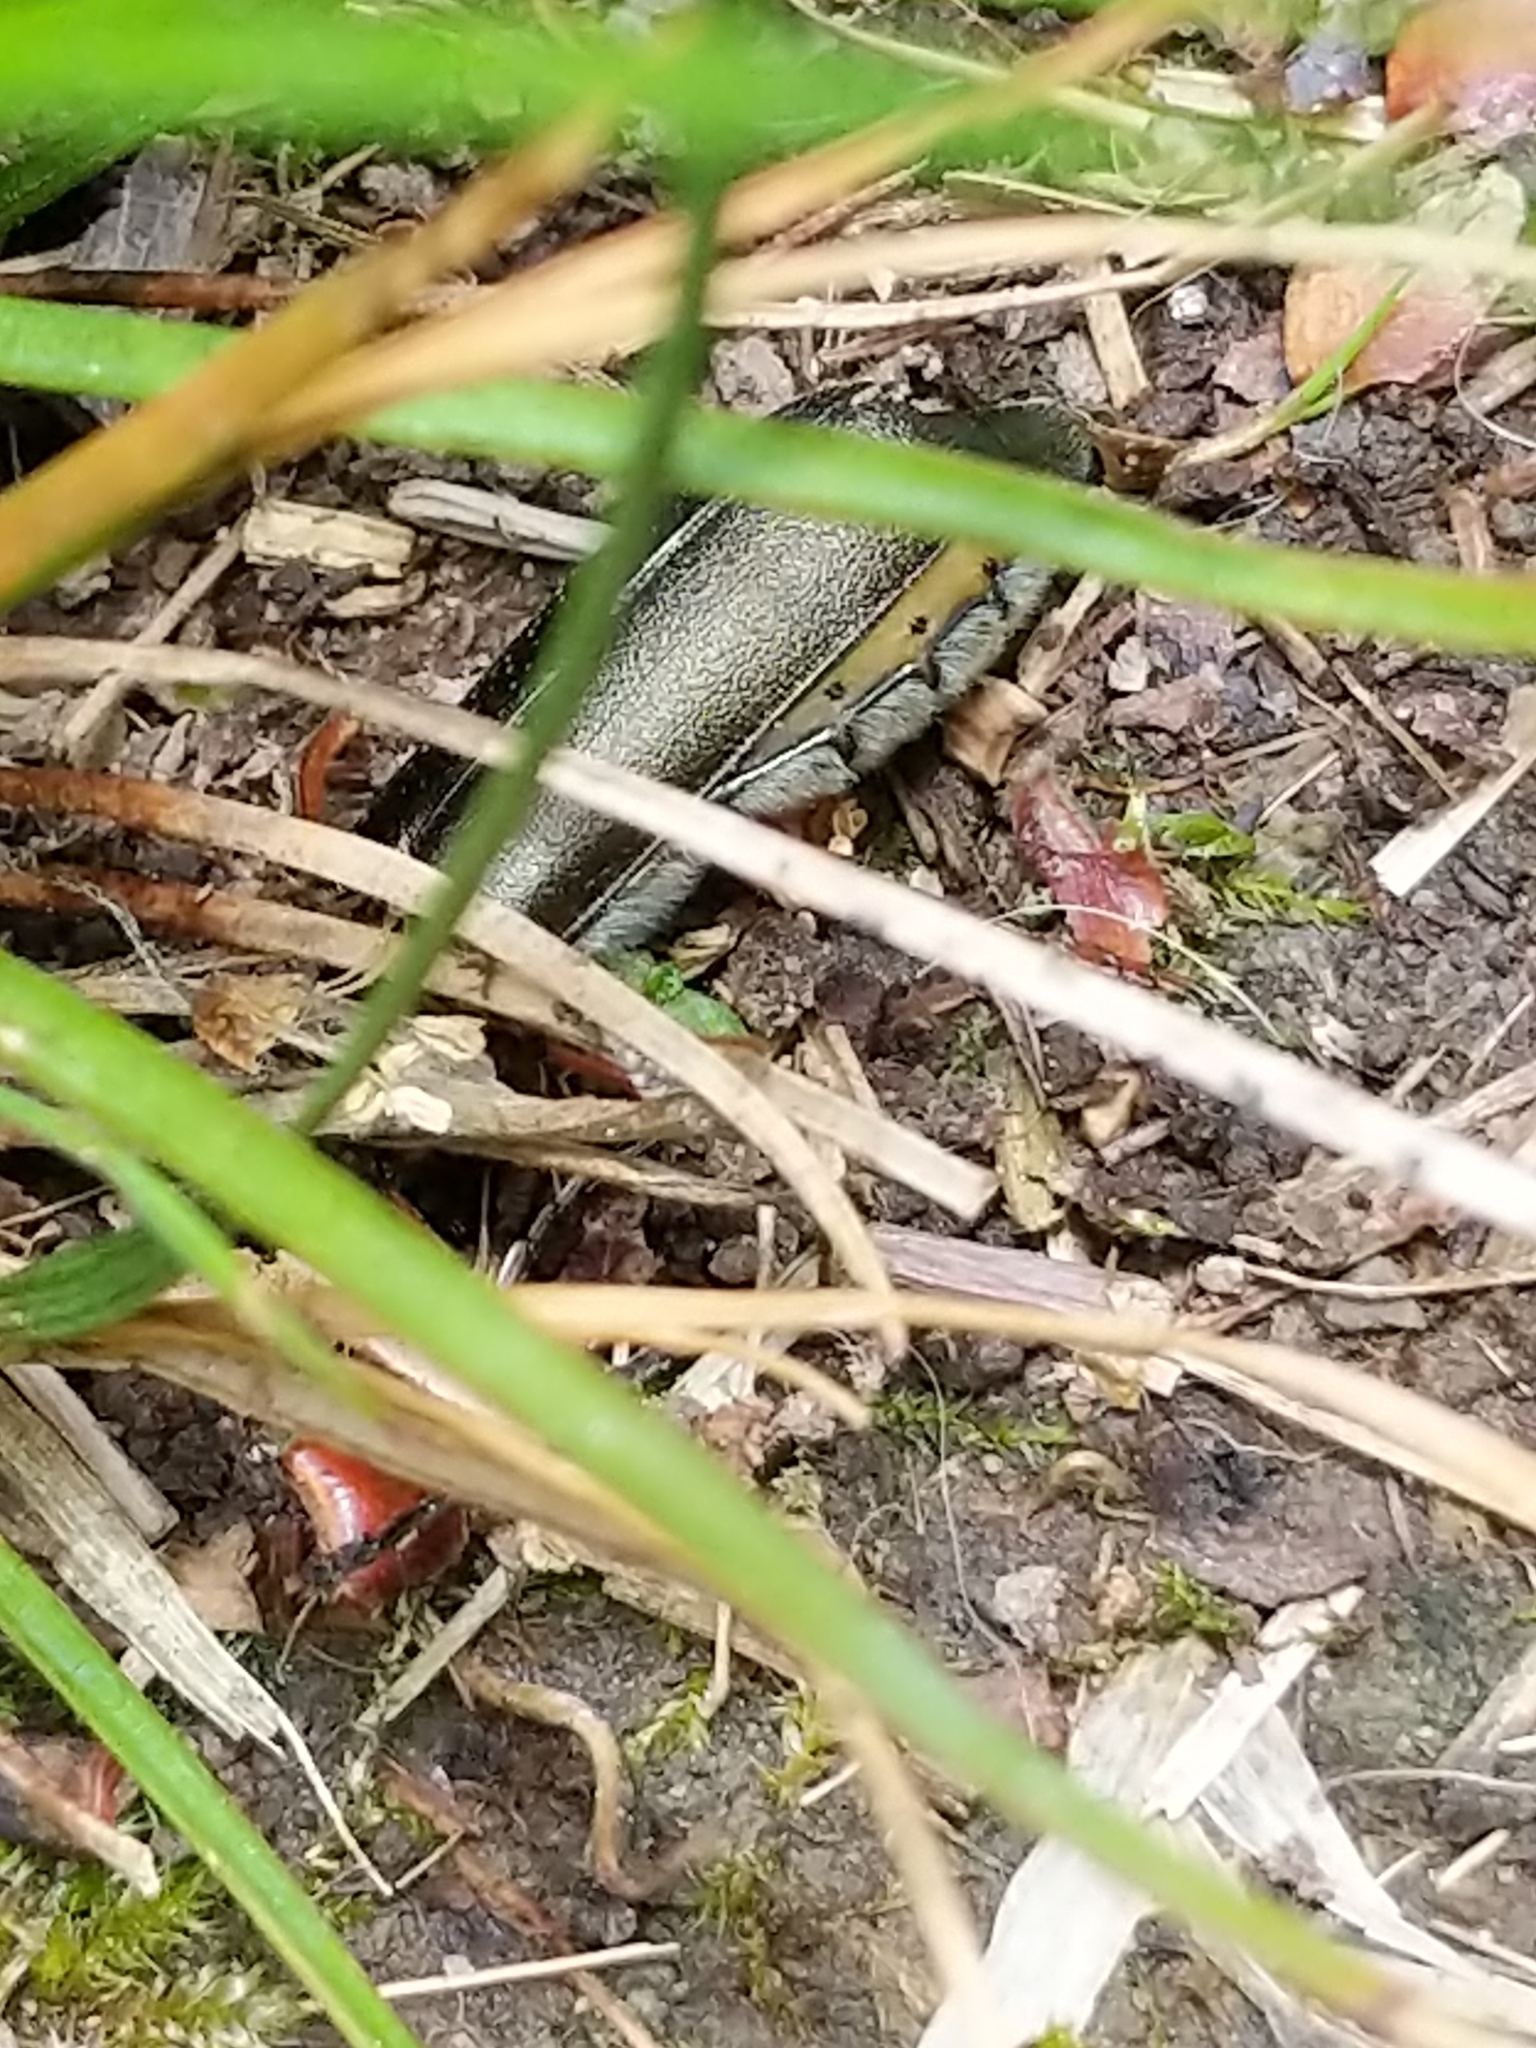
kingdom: Animalia
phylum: Arthropoda
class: Insecta
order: Coleoptera
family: Meloidae
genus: Lytta
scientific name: Lytta aenea
